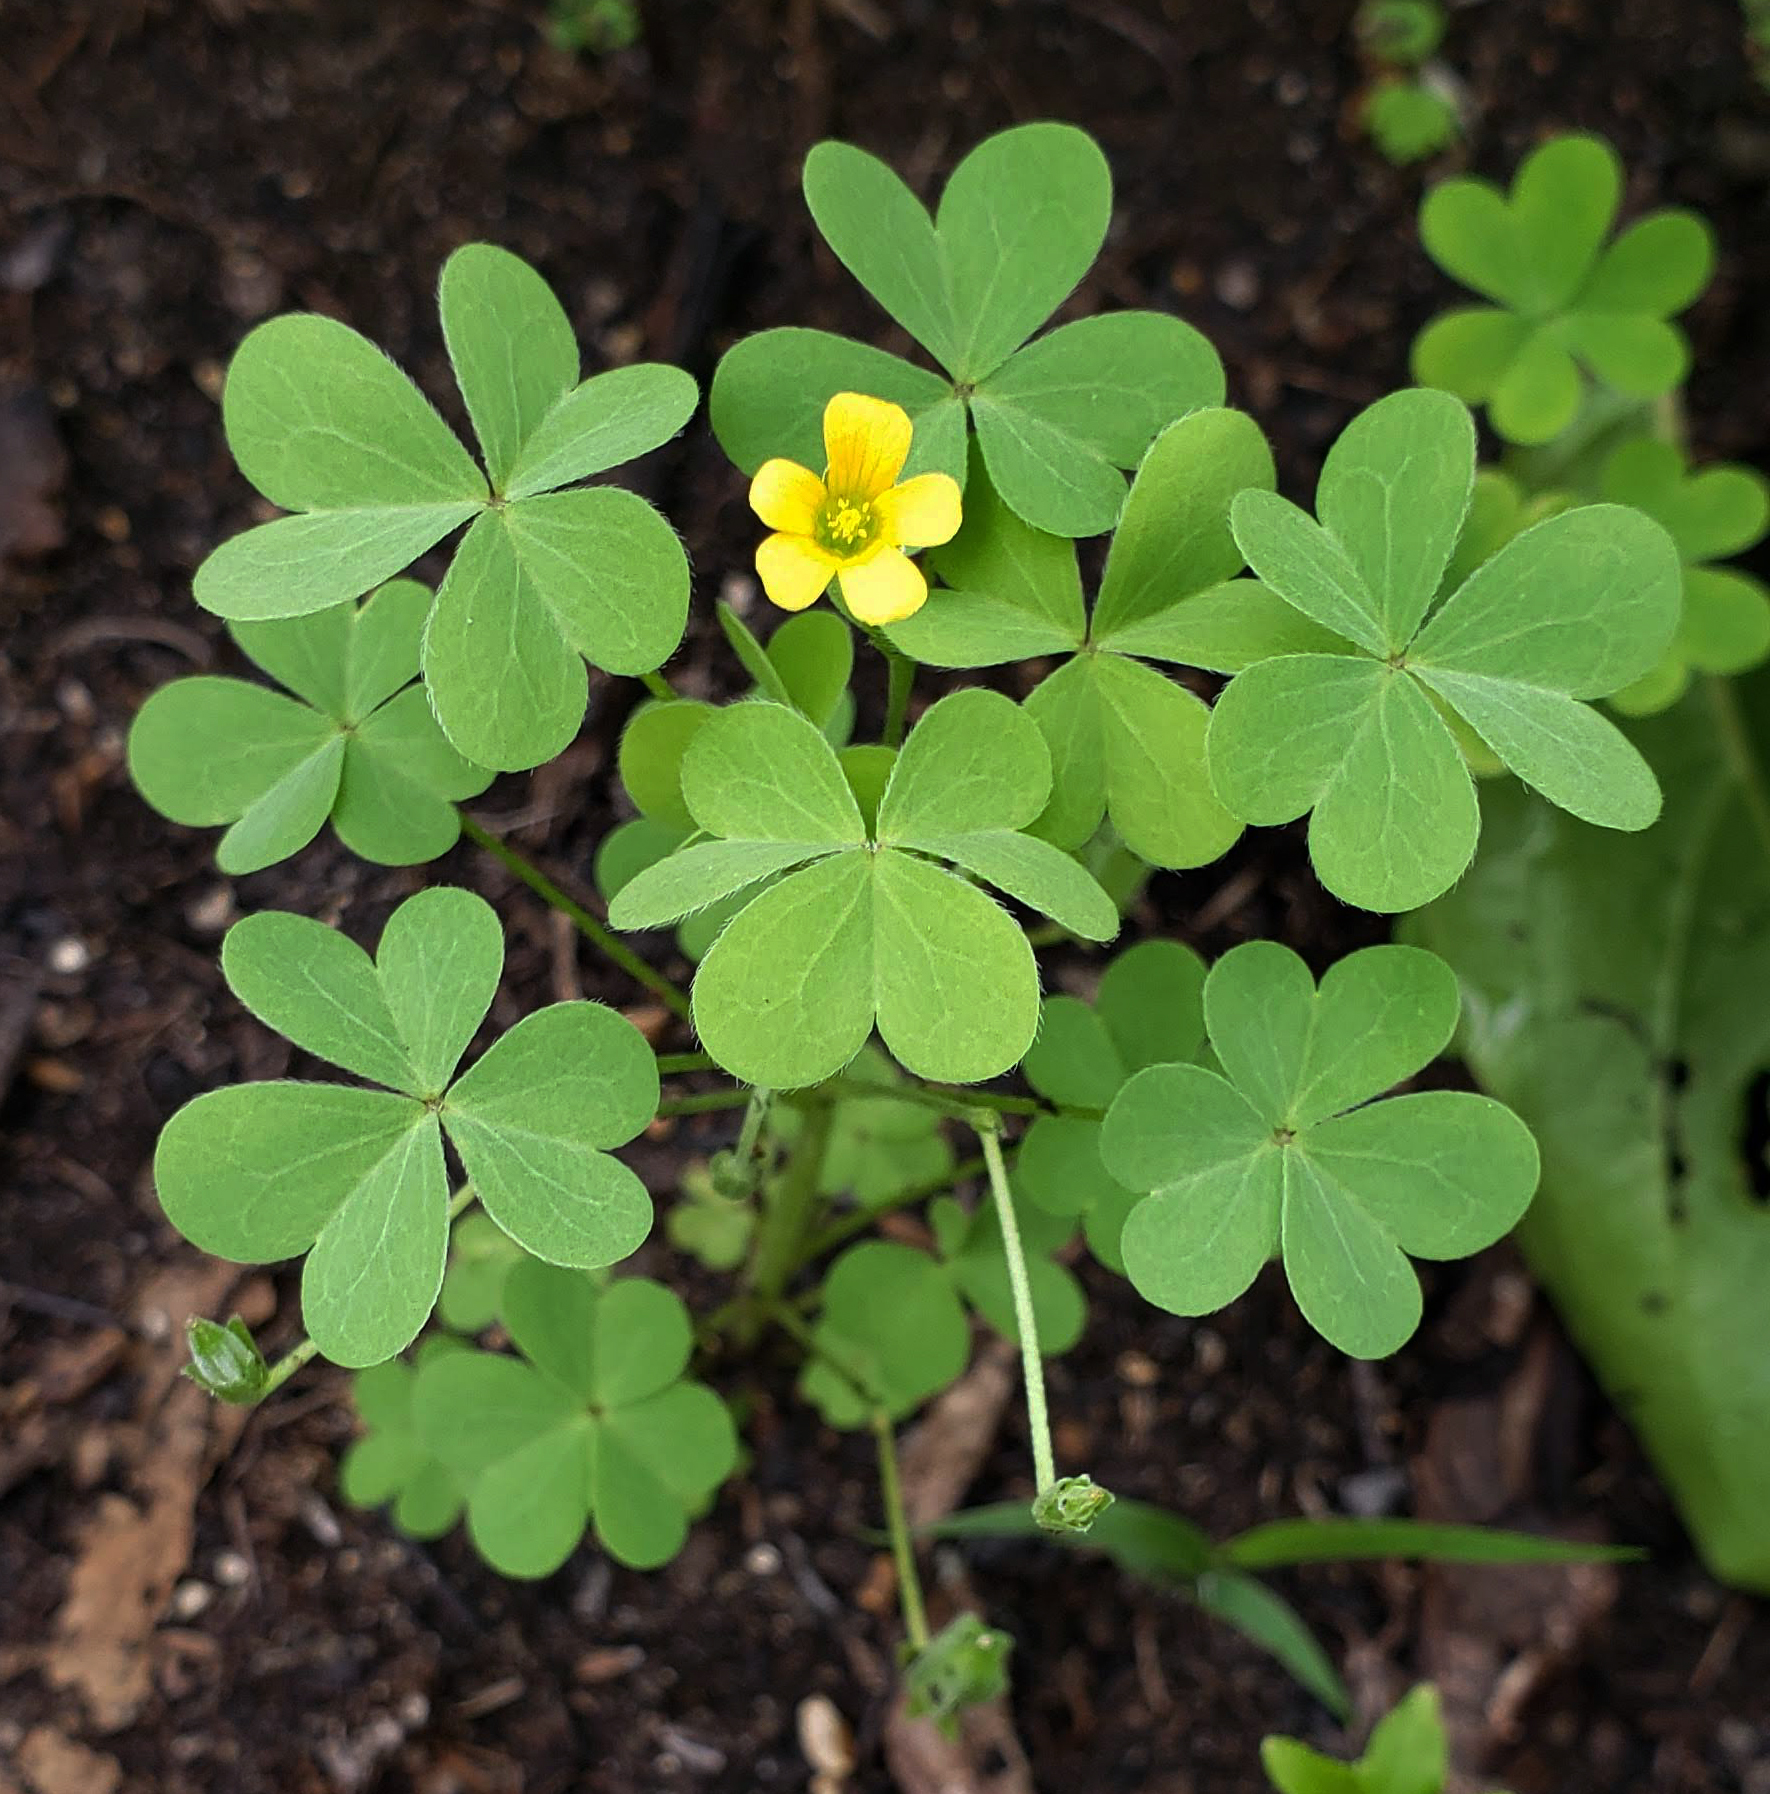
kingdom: Plantae
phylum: Tracheophyta
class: Magnoliopsida
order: Oxalidales
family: Oxalidaceae
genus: Oxalis
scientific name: Oxalis dillenii
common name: Sussex yellow-sorrel
